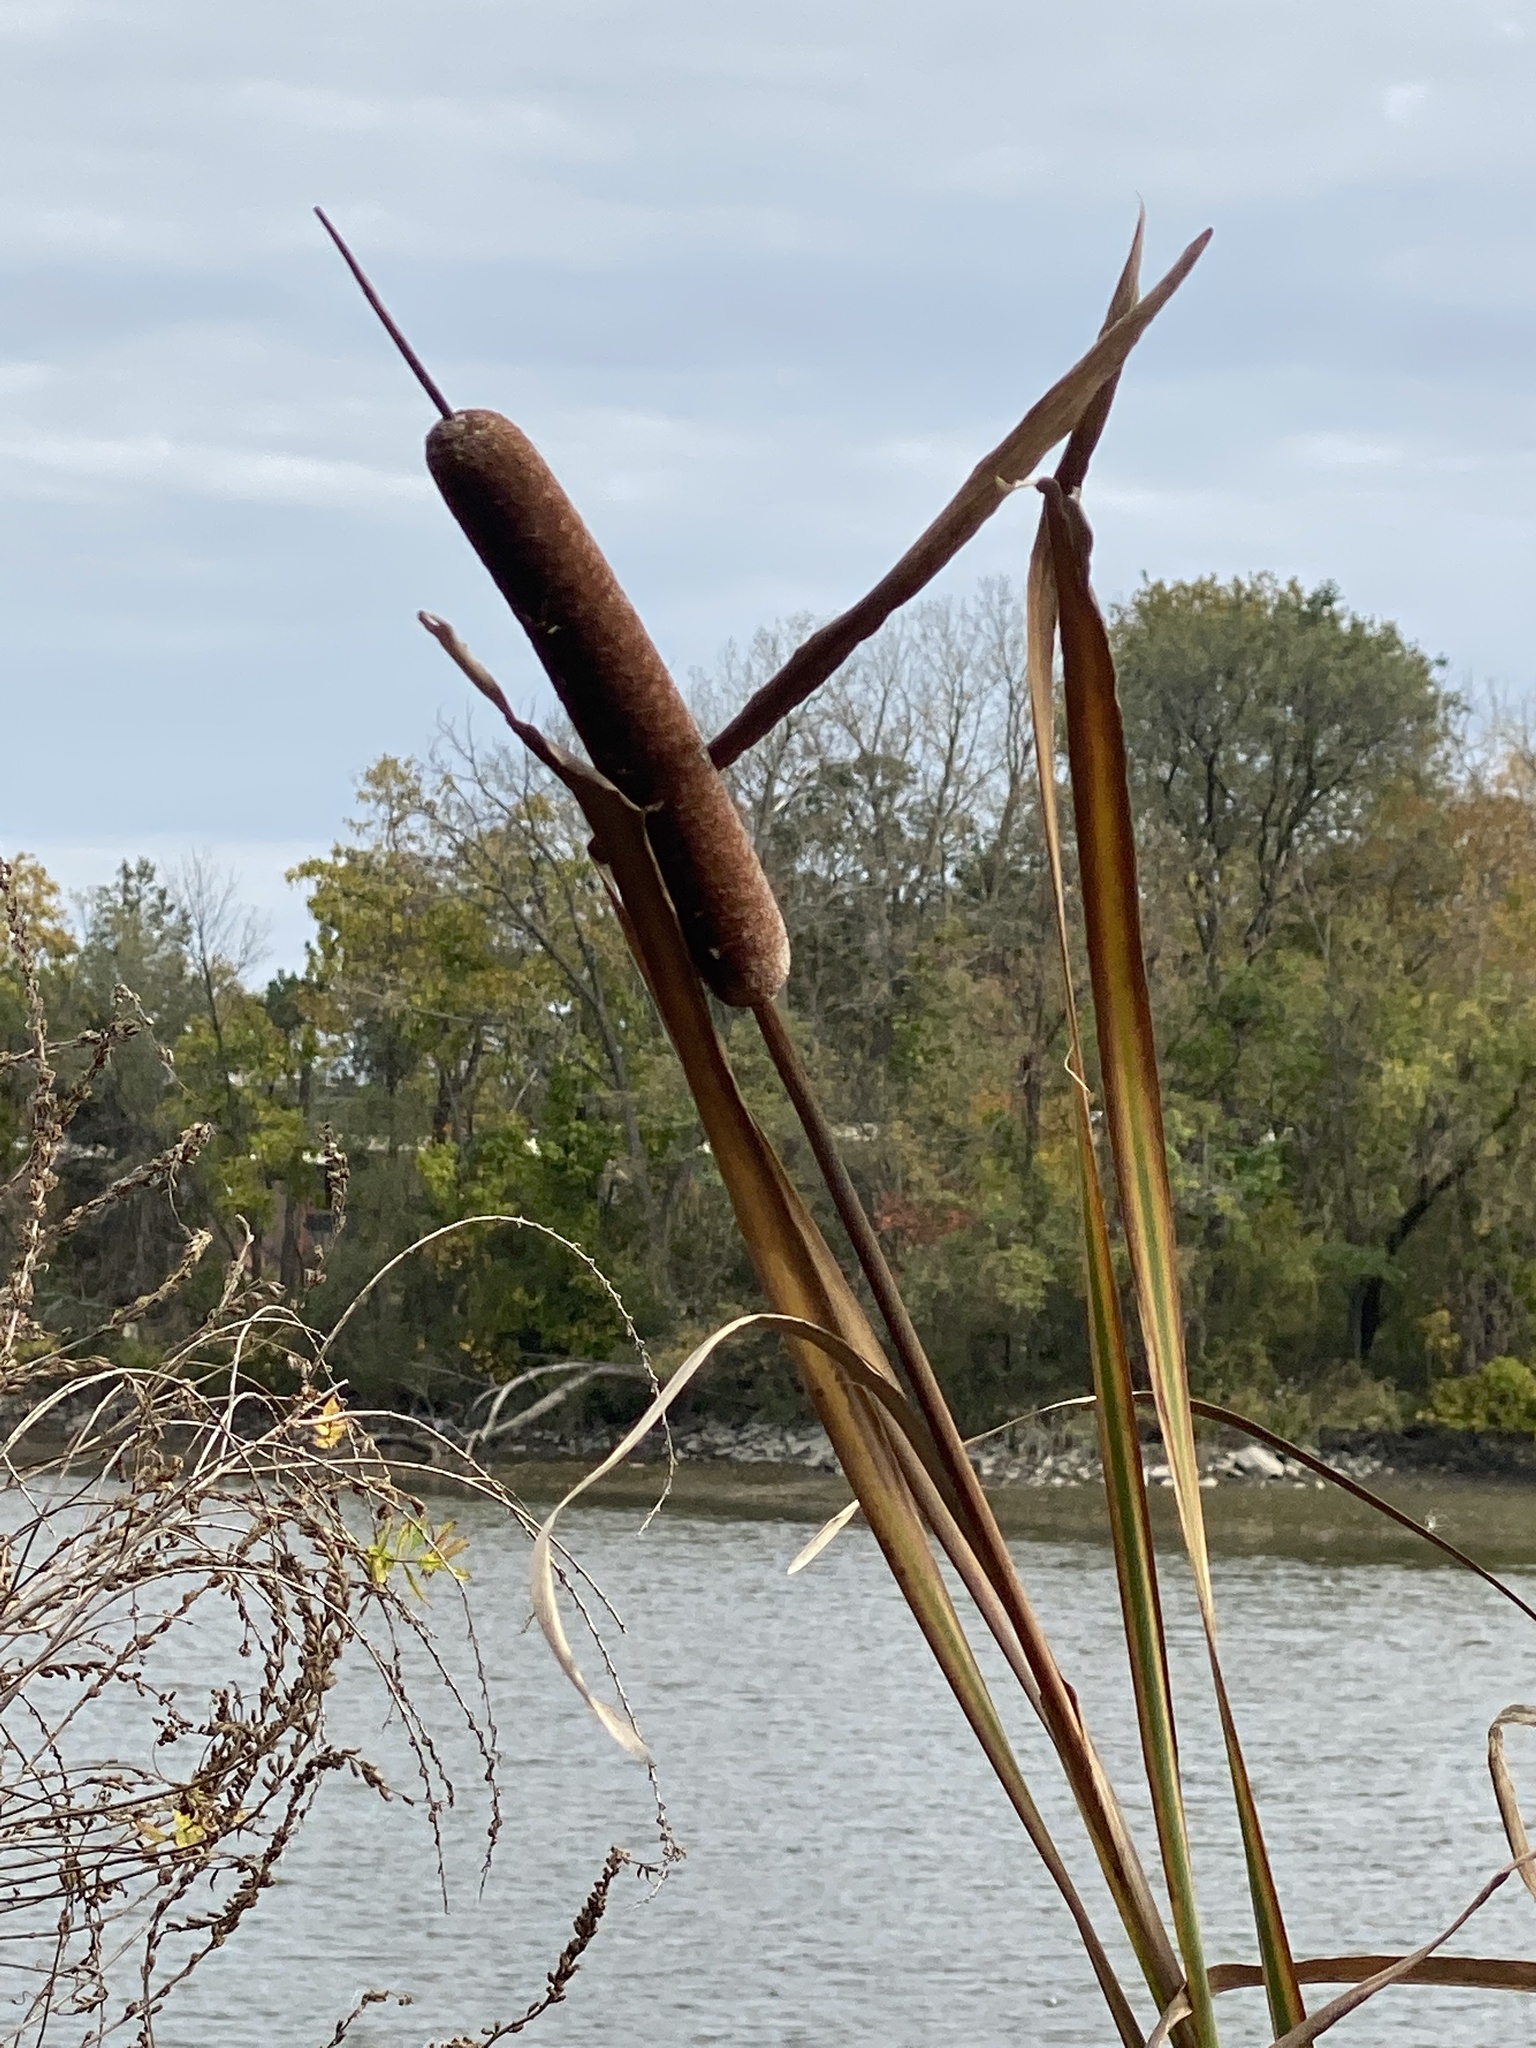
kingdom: Plantae
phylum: Tracheophyta
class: Liliopsida
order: Poales
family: Typhaceae
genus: Typha
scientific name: Typha latifolia
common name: Broadleaf cattail
